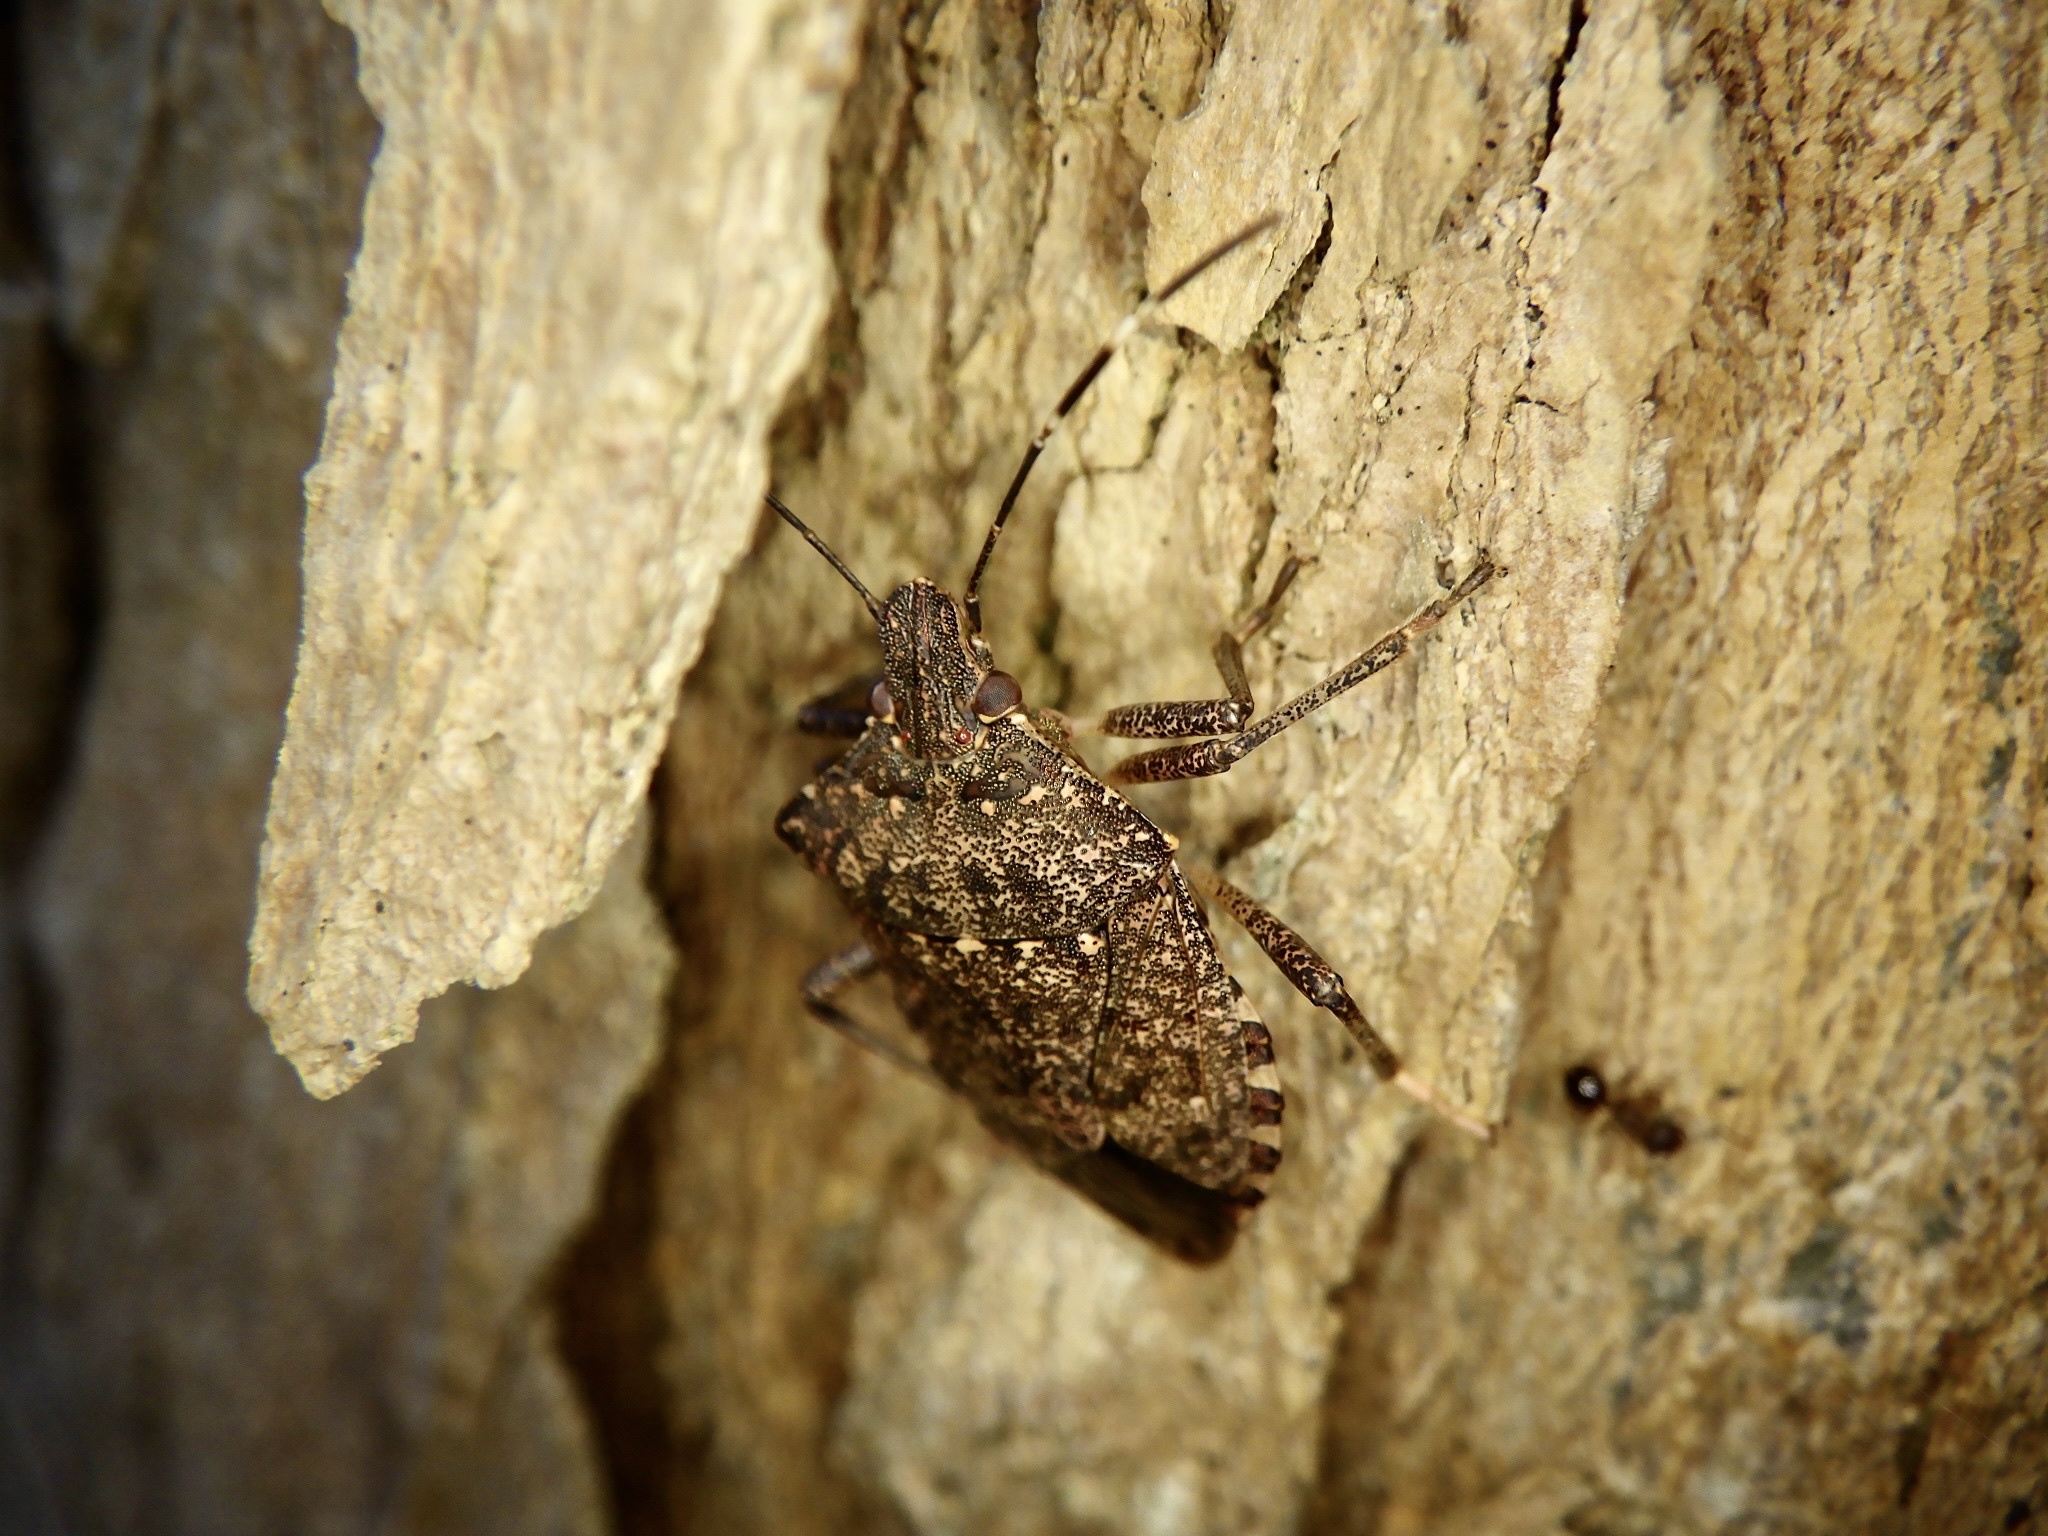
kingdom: Animalia
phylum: Arthropoda
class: Insecta
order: Hemiptera
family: Pentatomidae
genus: Halyomorpha
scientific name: Halyomorpha halys
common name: Brown marmorated stink bug
